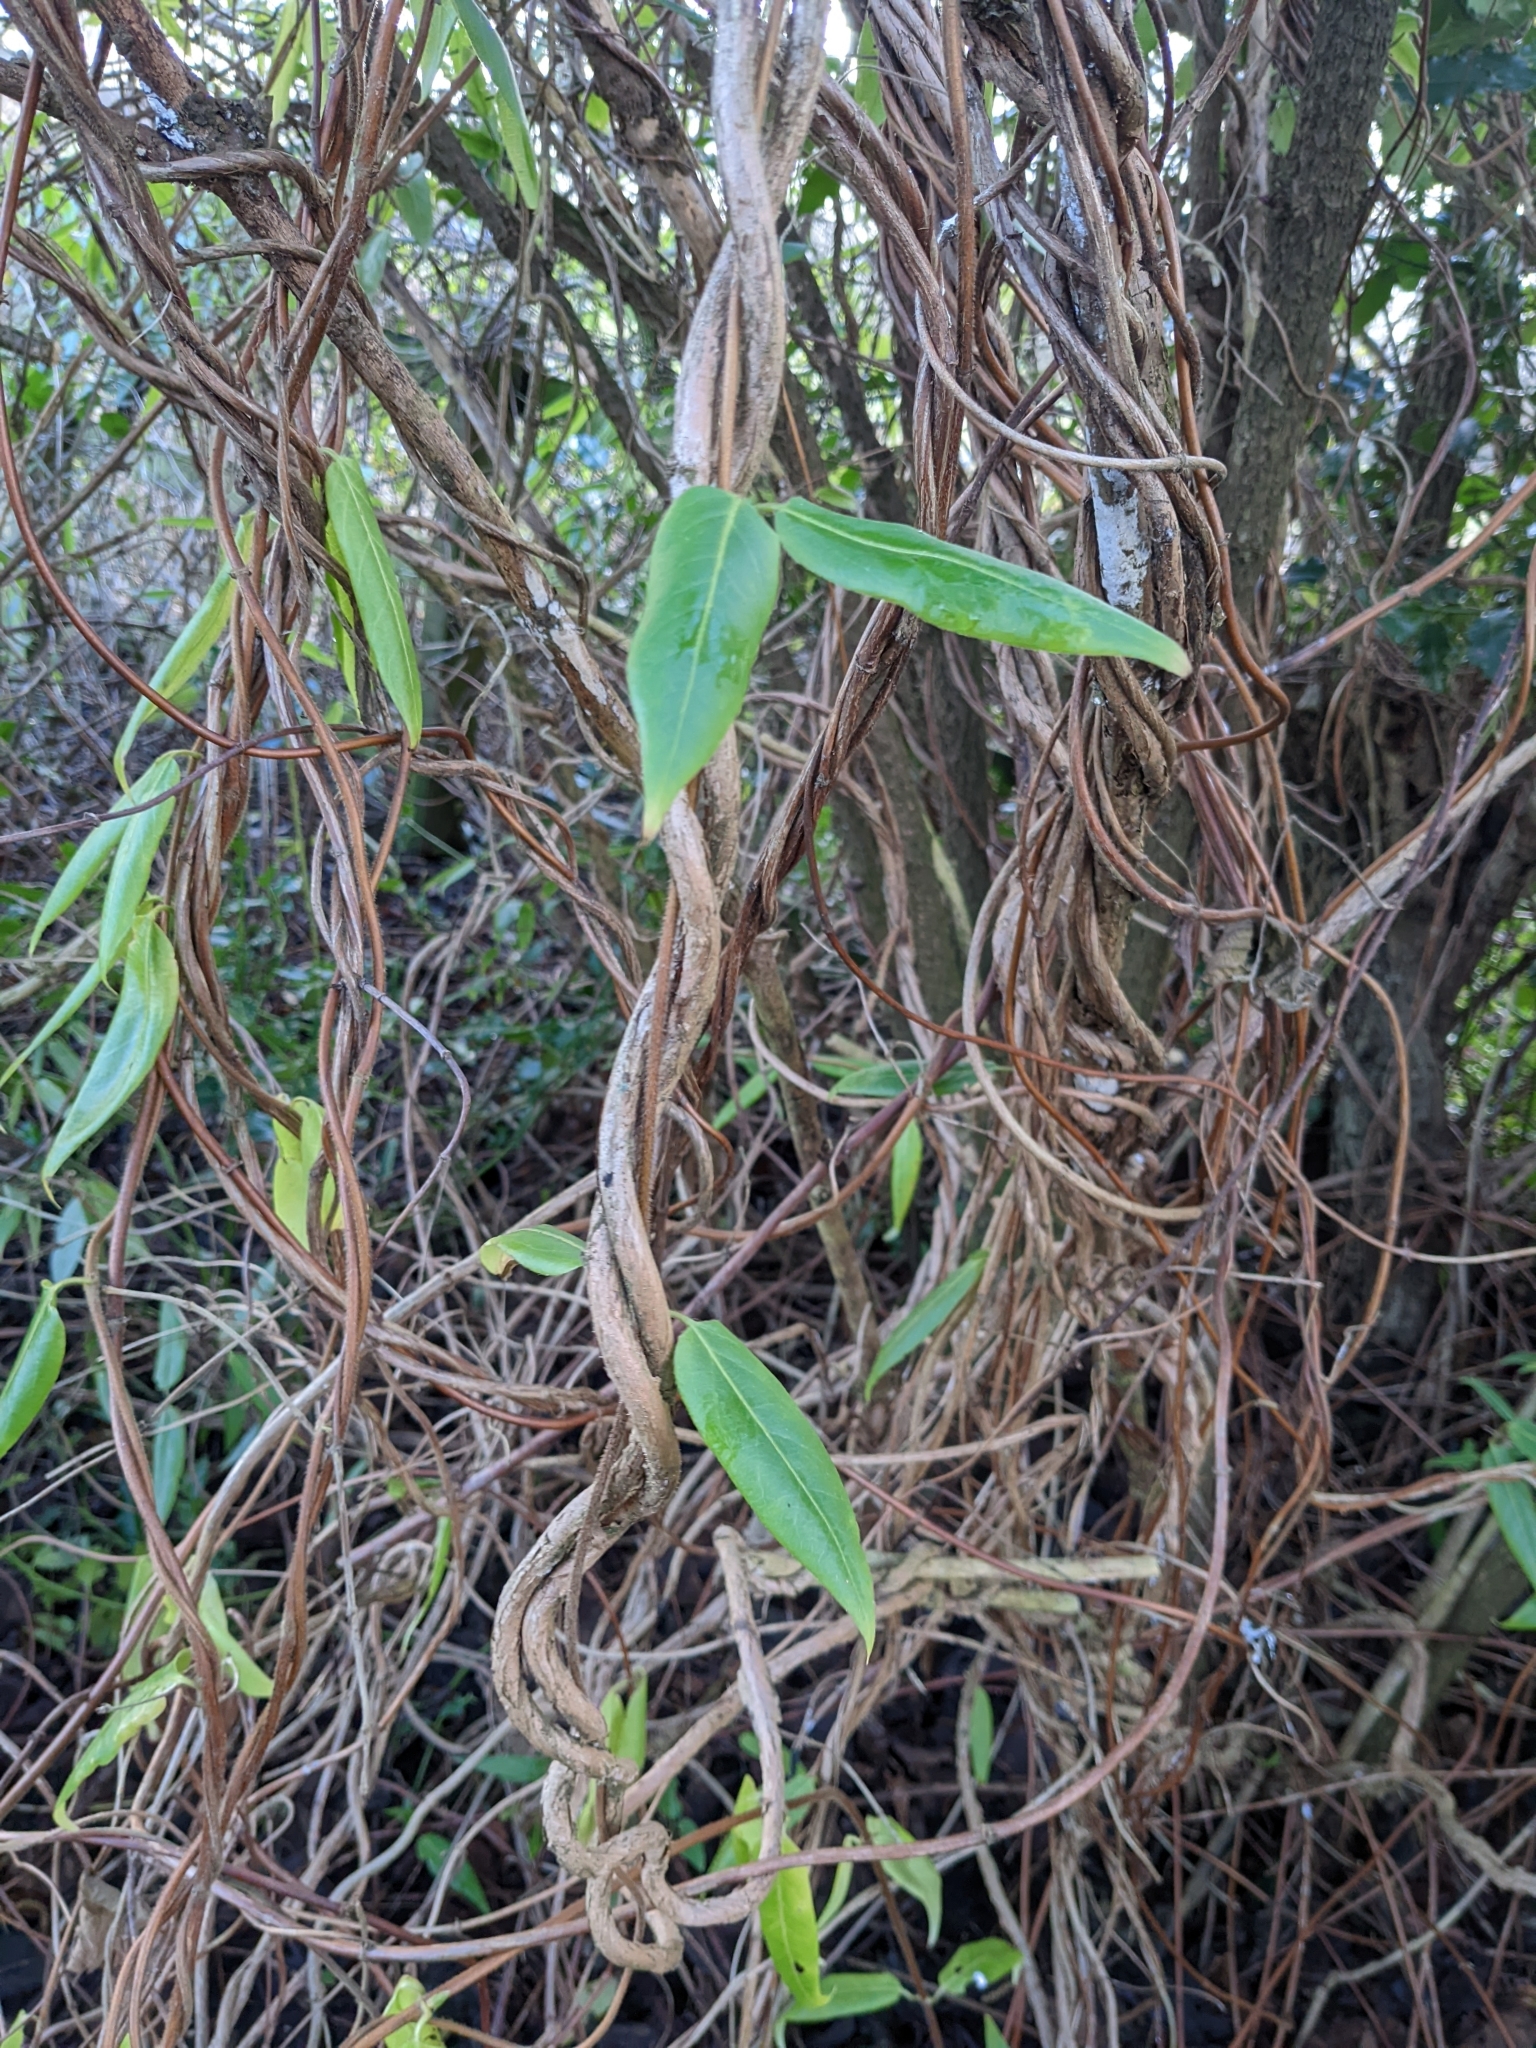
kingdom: Plantae
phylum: Tracheophyta
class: Magnoliopsida
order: Dipsacales
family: Caprifoliaceae
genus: Lonicera
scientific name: Lonicera acuminata
